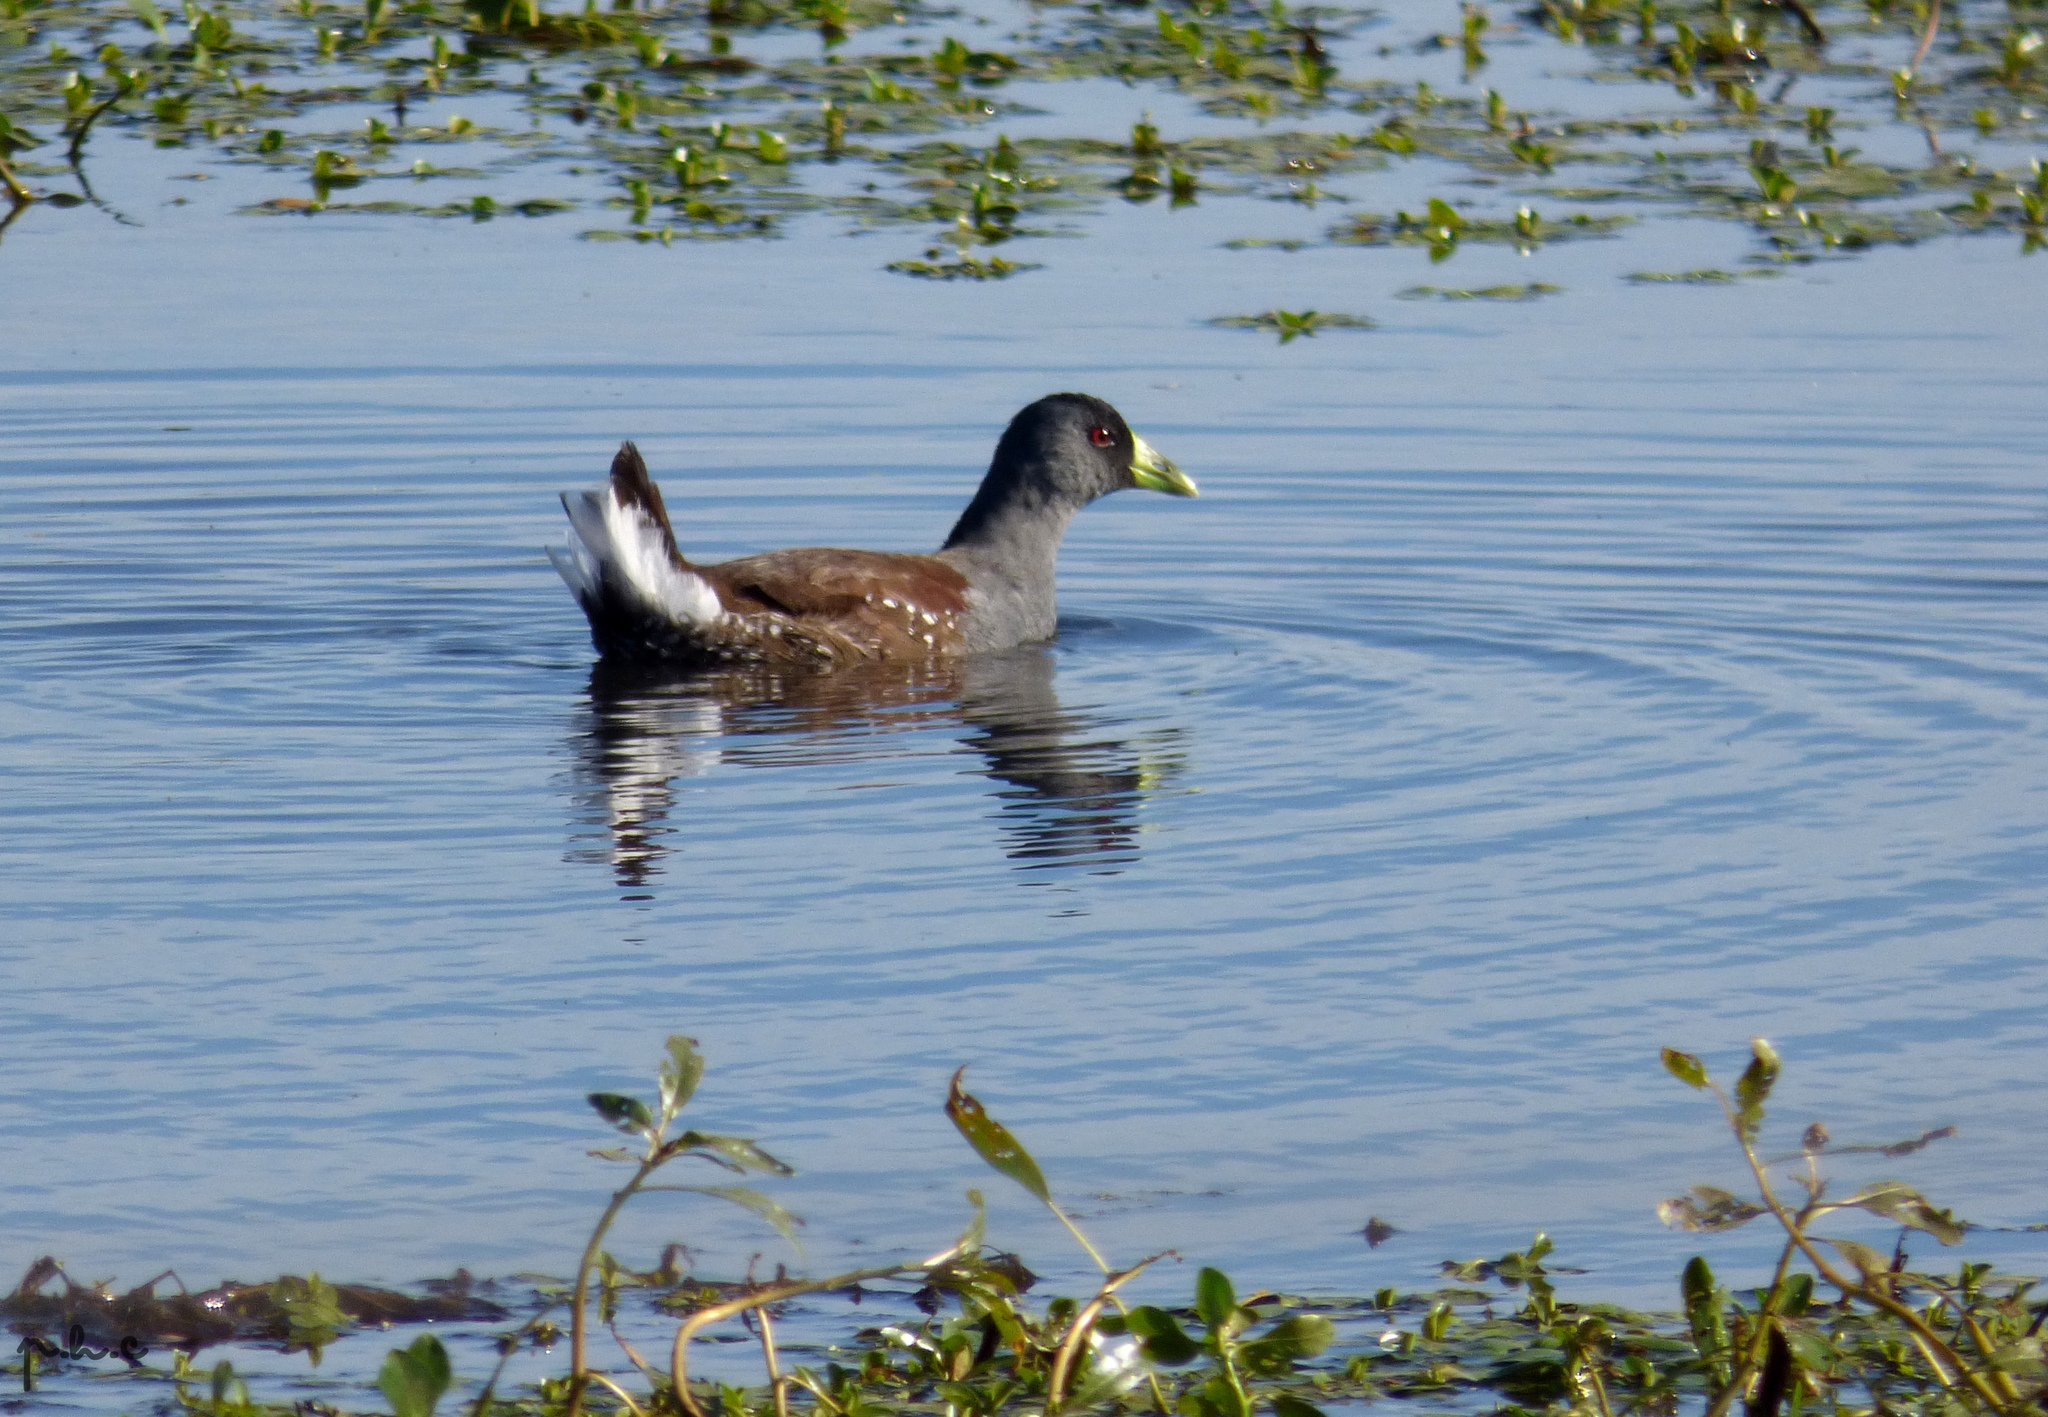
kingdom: Animalia
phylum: Chordata
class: Aves
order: Gruiformes
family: Rallidae
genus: Gallinula
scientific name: Gallinula melanops
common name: Spot-flanked gallinule
